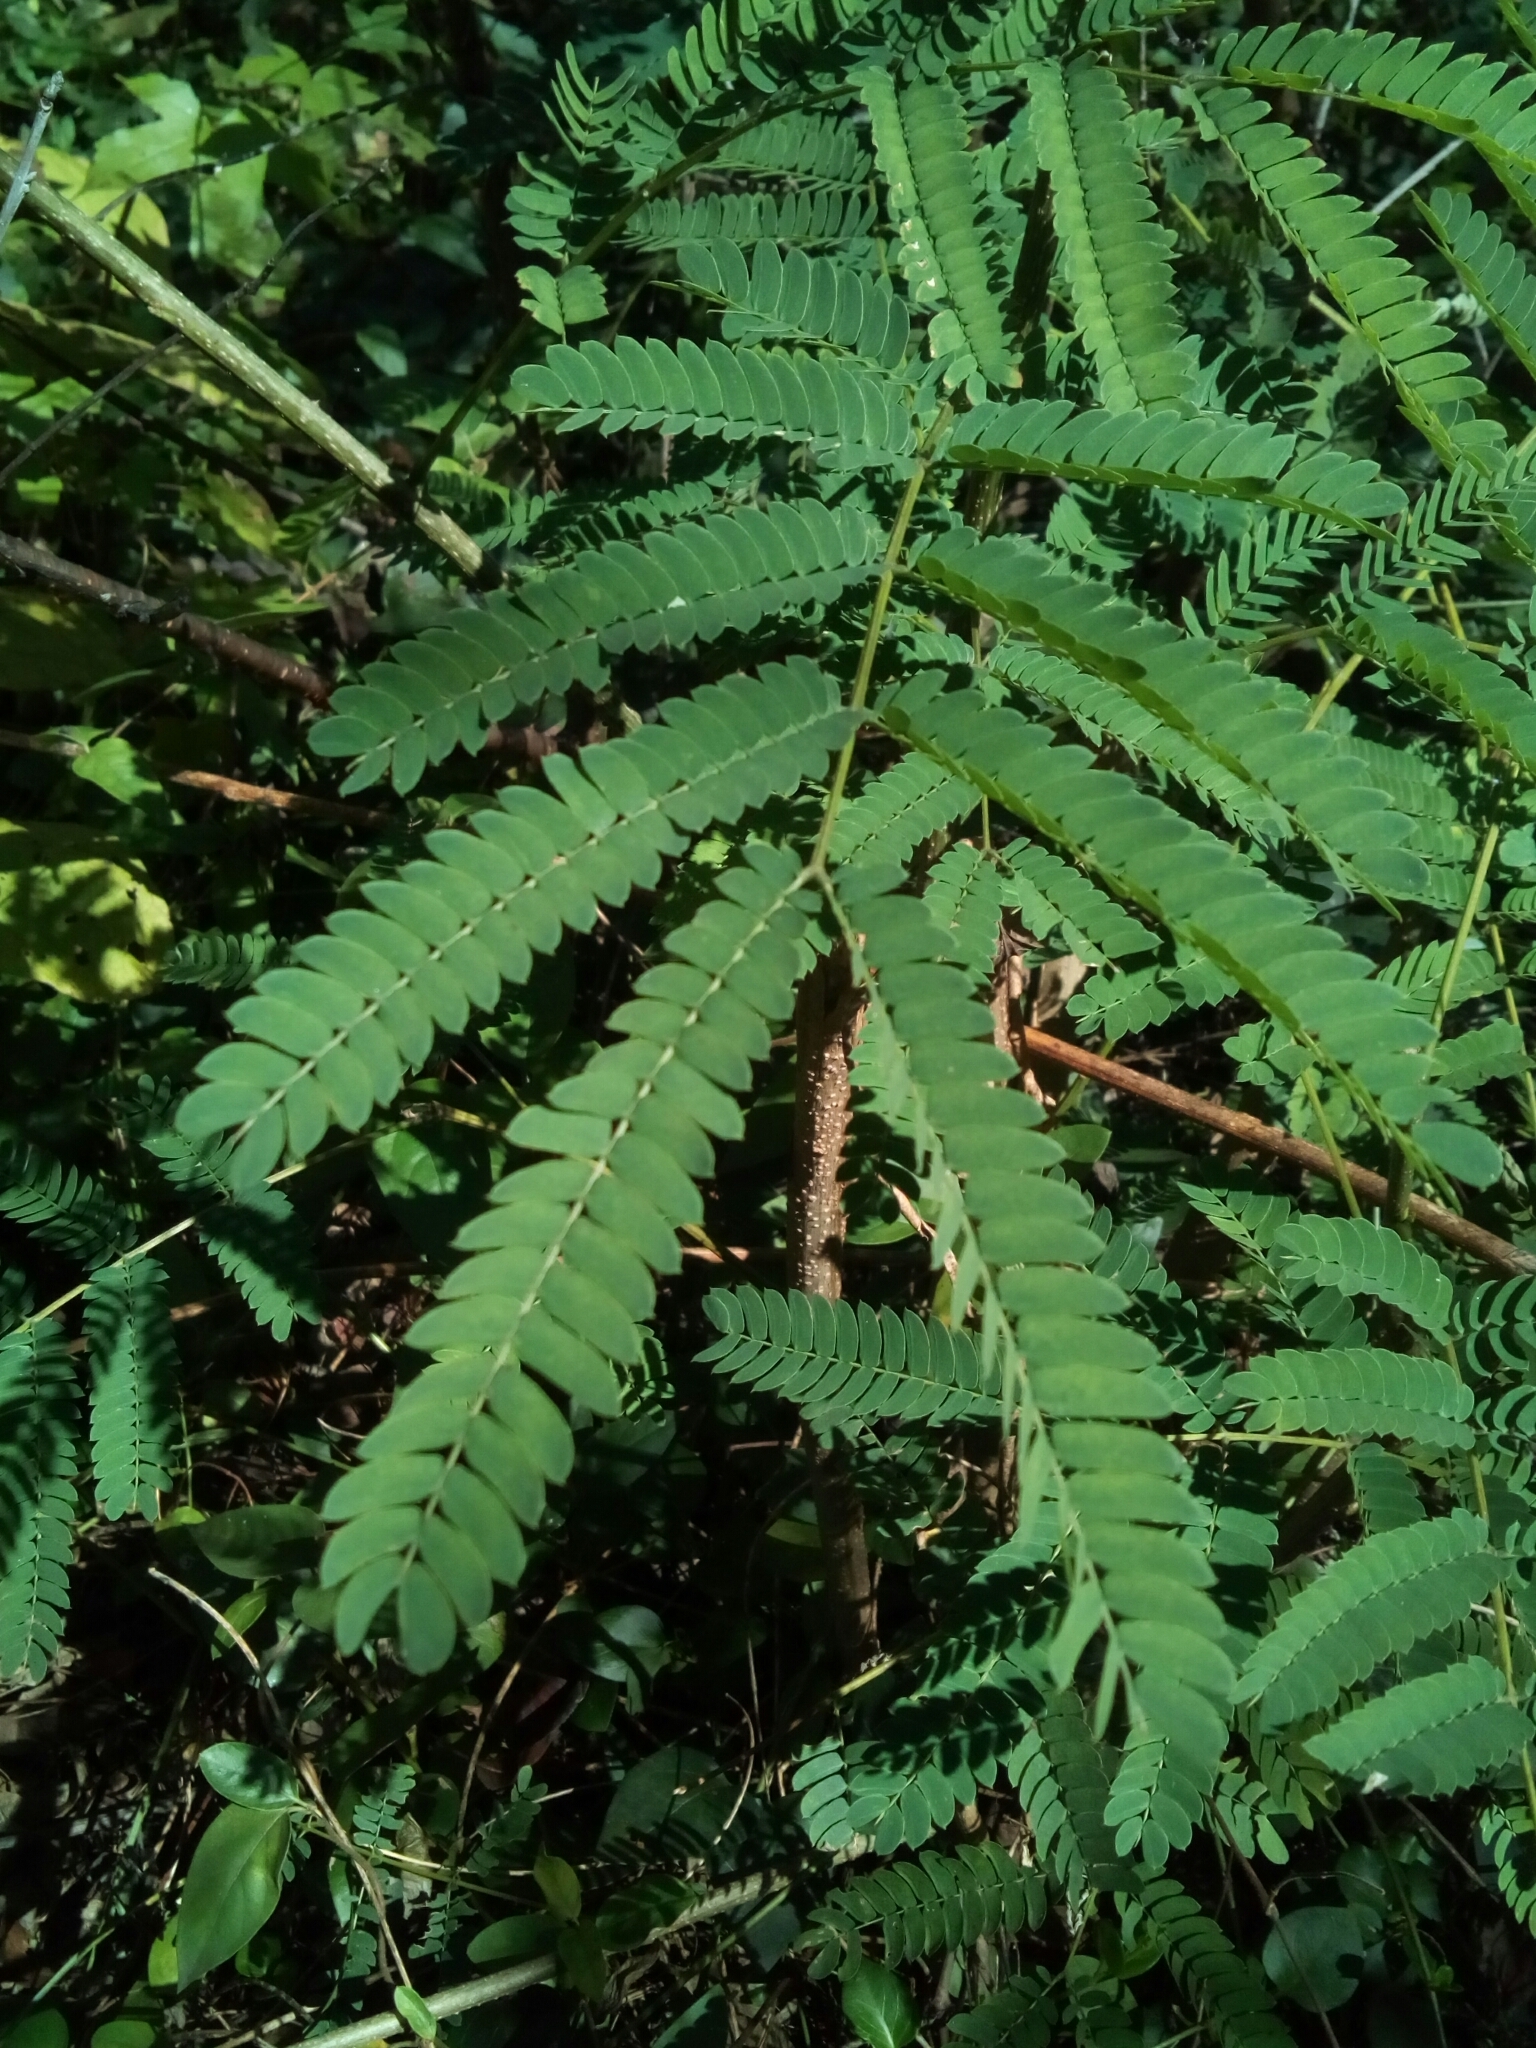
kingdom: Plantae
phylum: Tracheophyta
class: Magnoliopsida
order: Fabales
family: Fabaceae
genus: Albizia
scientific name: Albizia julibrissin
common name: Silktree
